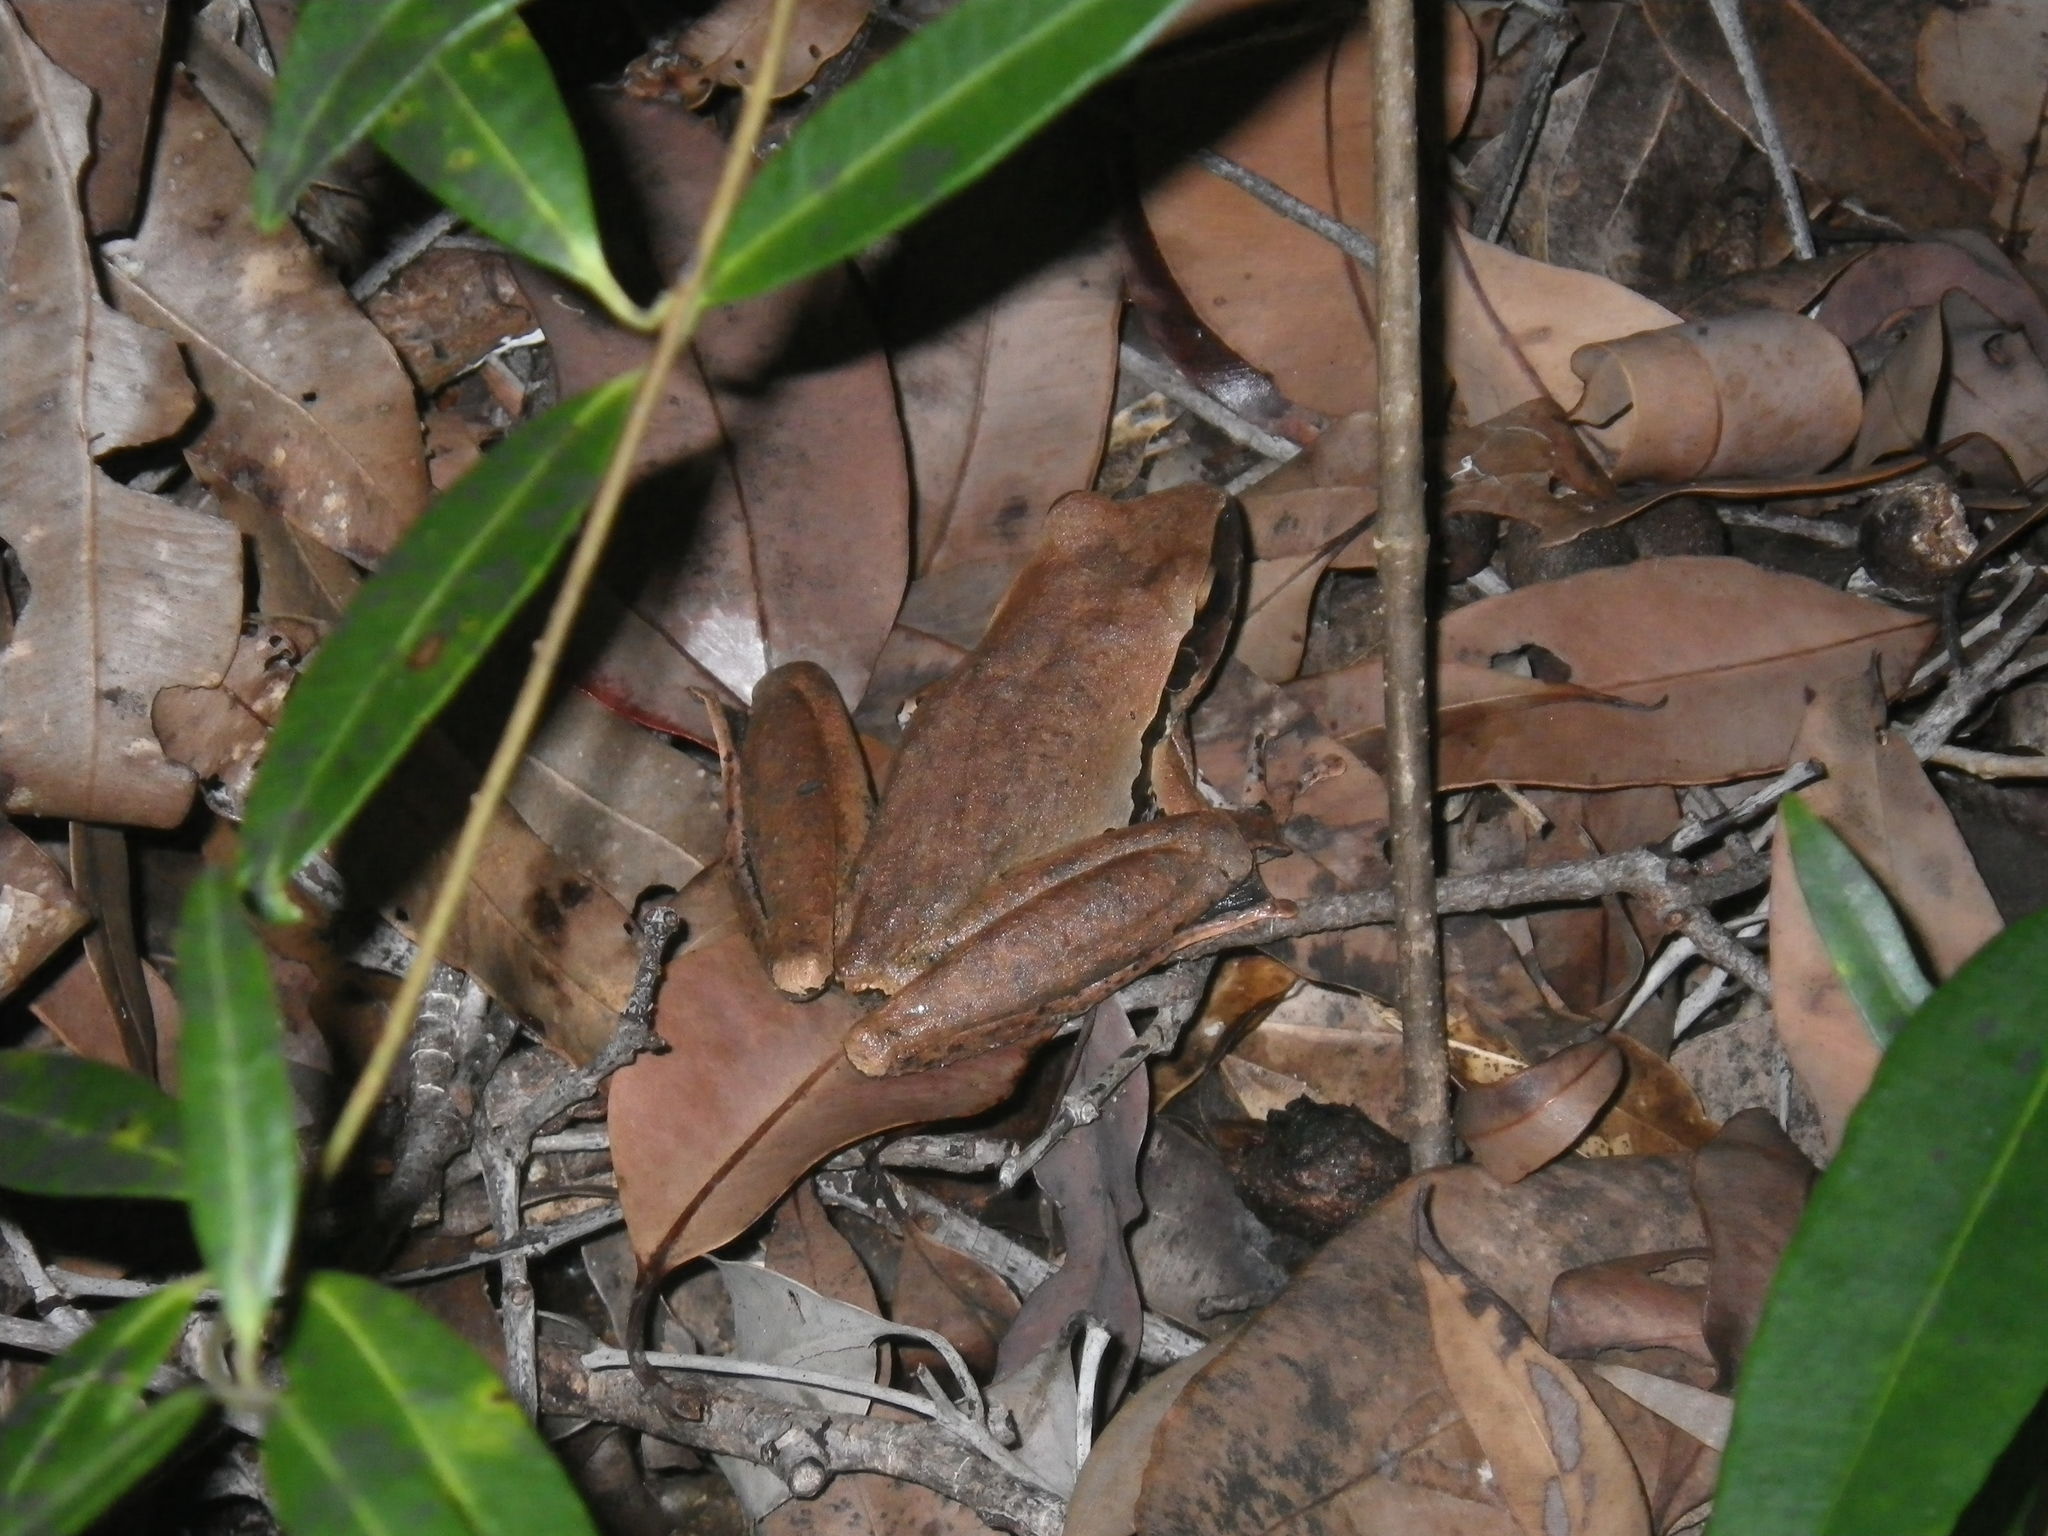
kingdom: Animalia
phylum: Chordata
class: Amphibia
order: Anura
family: Pelodryadidae
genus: Ranoidea
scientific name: Ranoidea wilcoxii
